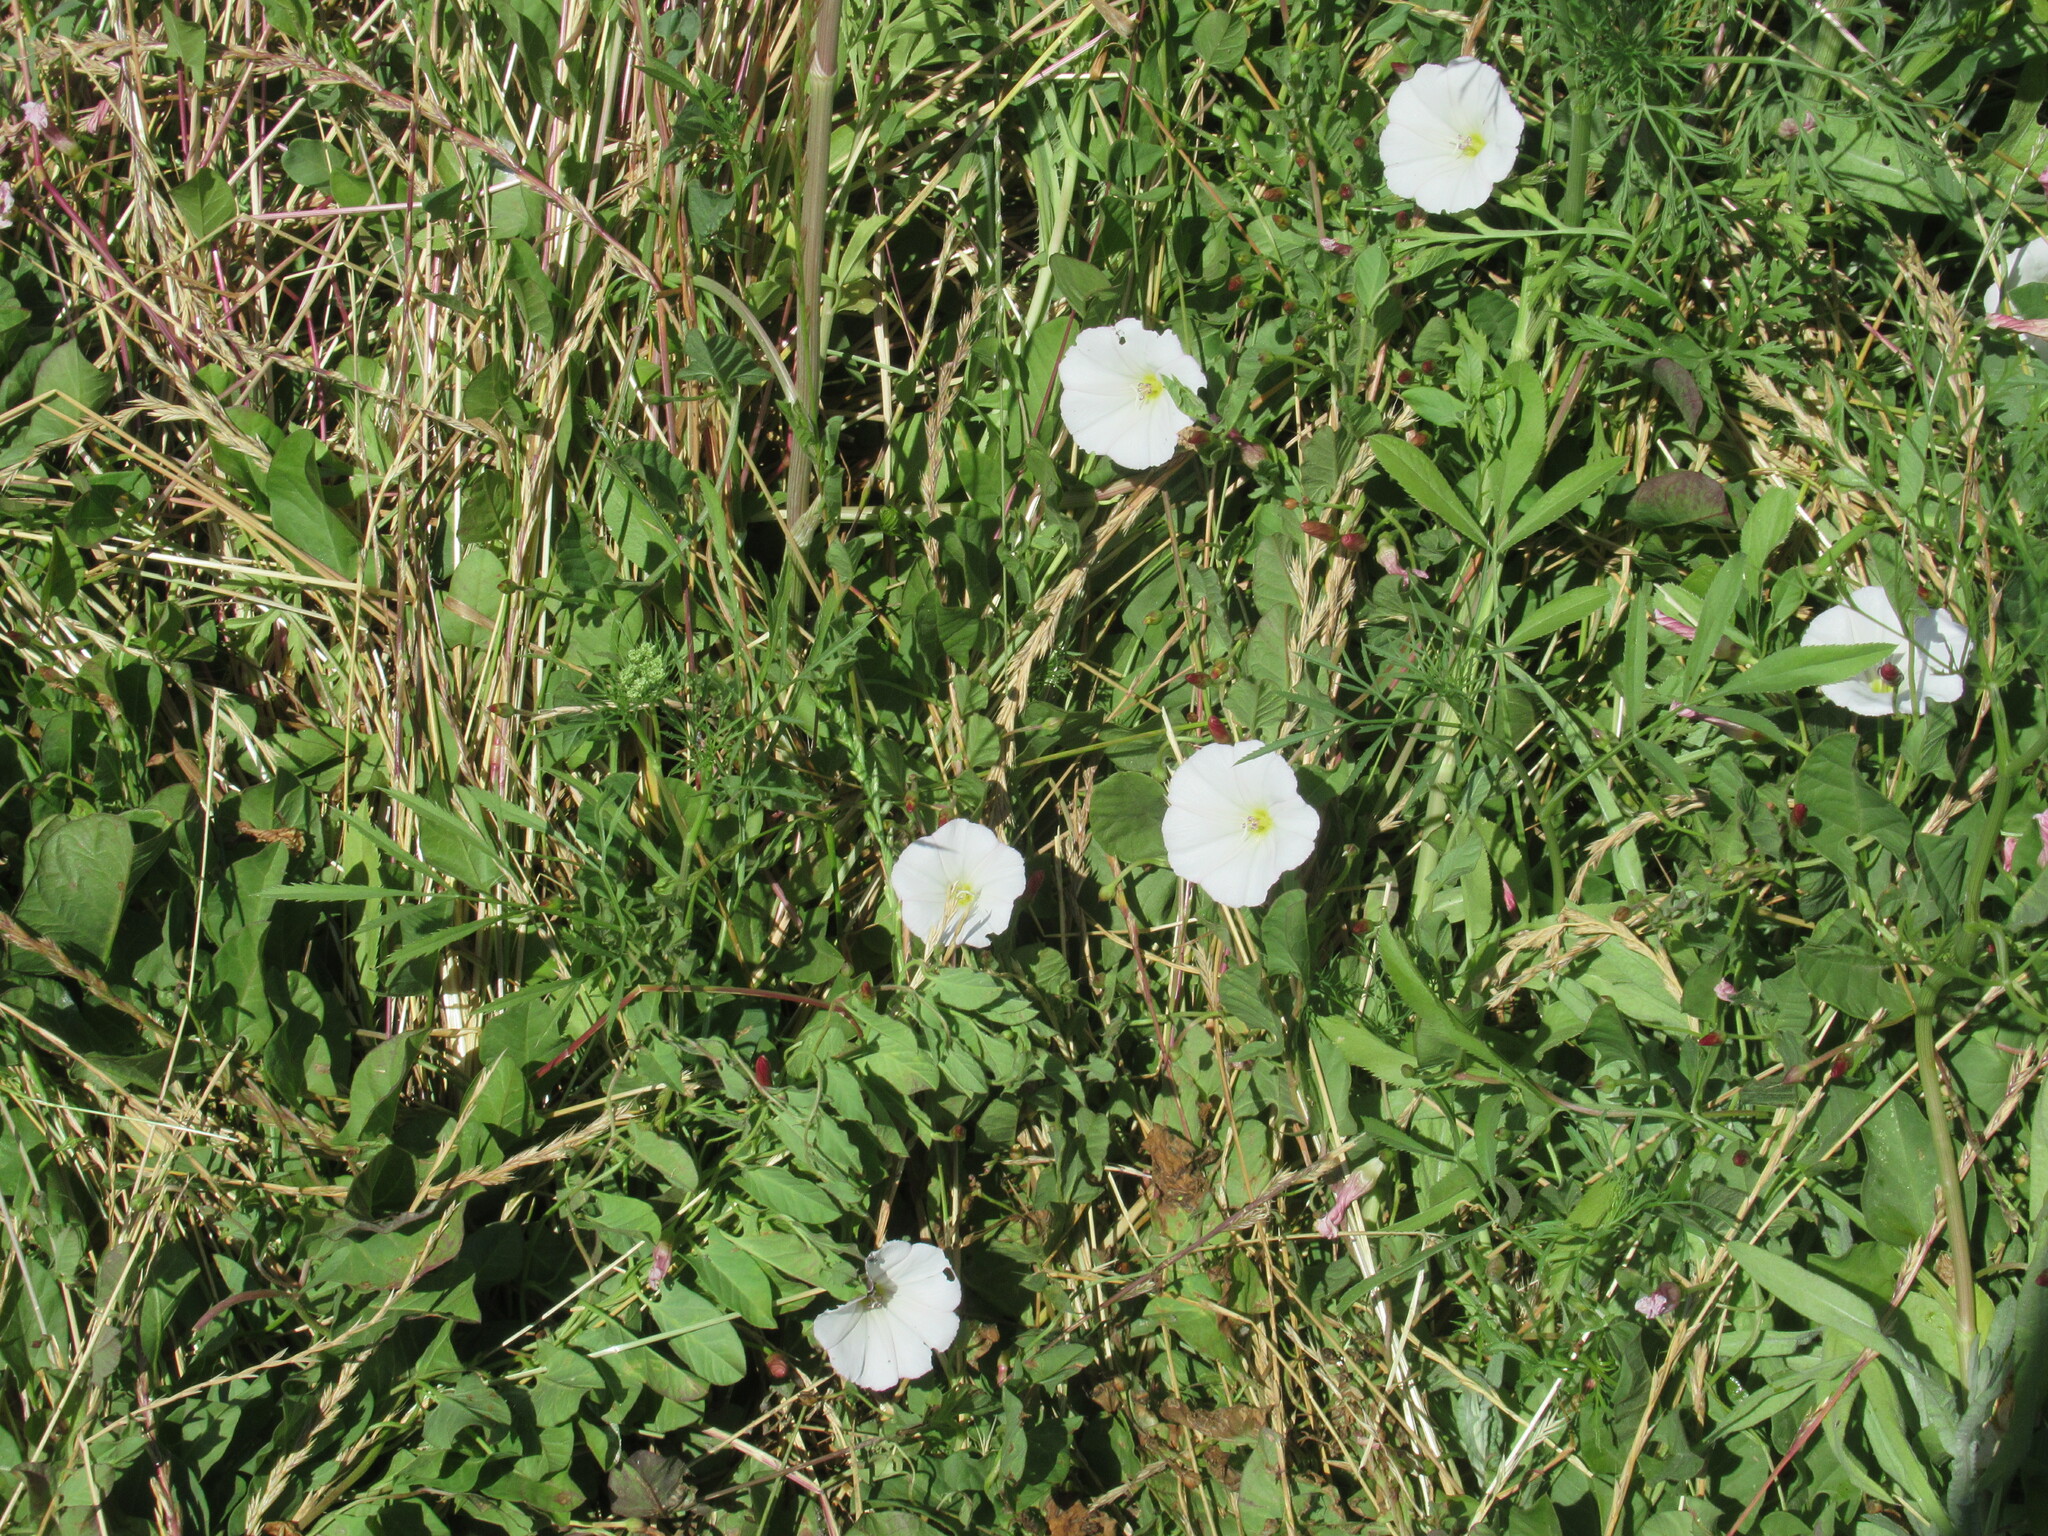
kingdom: Plantae
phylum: Tracheophyta
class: Magnoliopsida
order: Solanales
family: Convolvulaceae
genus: Convolvulus
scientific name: Convolvulus arvensis
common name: Field bindweed
